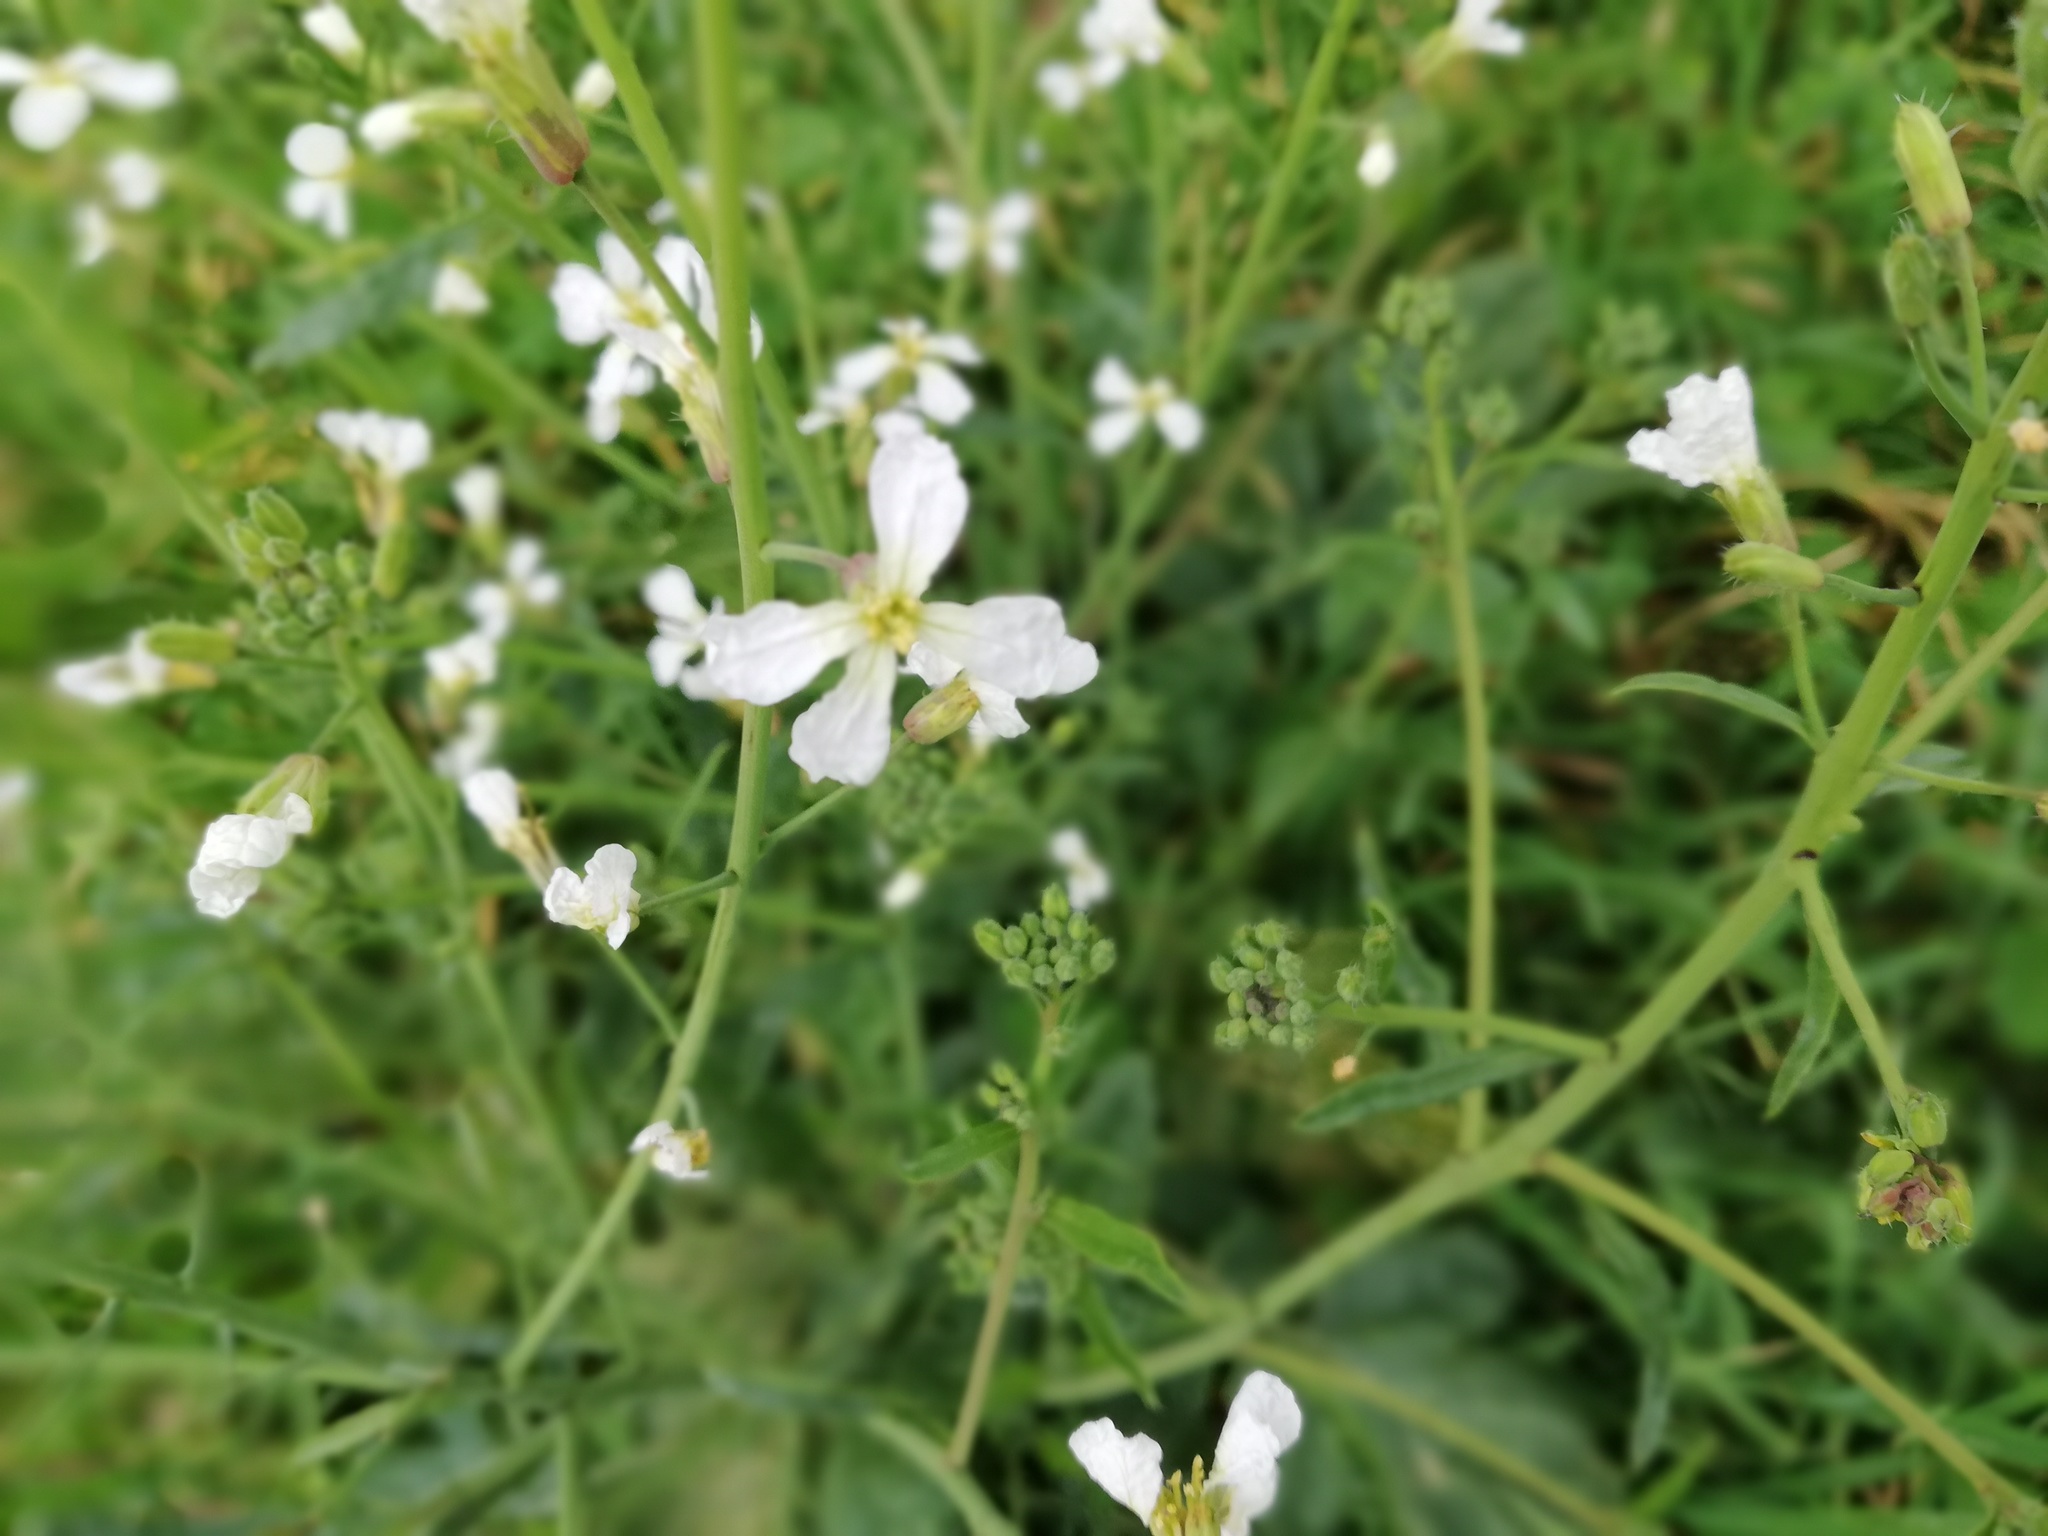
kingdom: Plantae
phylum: Tracheophyta
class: Magnoliopsida
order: Brassicales
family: Brassicaceae
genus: Raphanus
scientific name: Raphanus raphanistrum
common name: Wild radish
